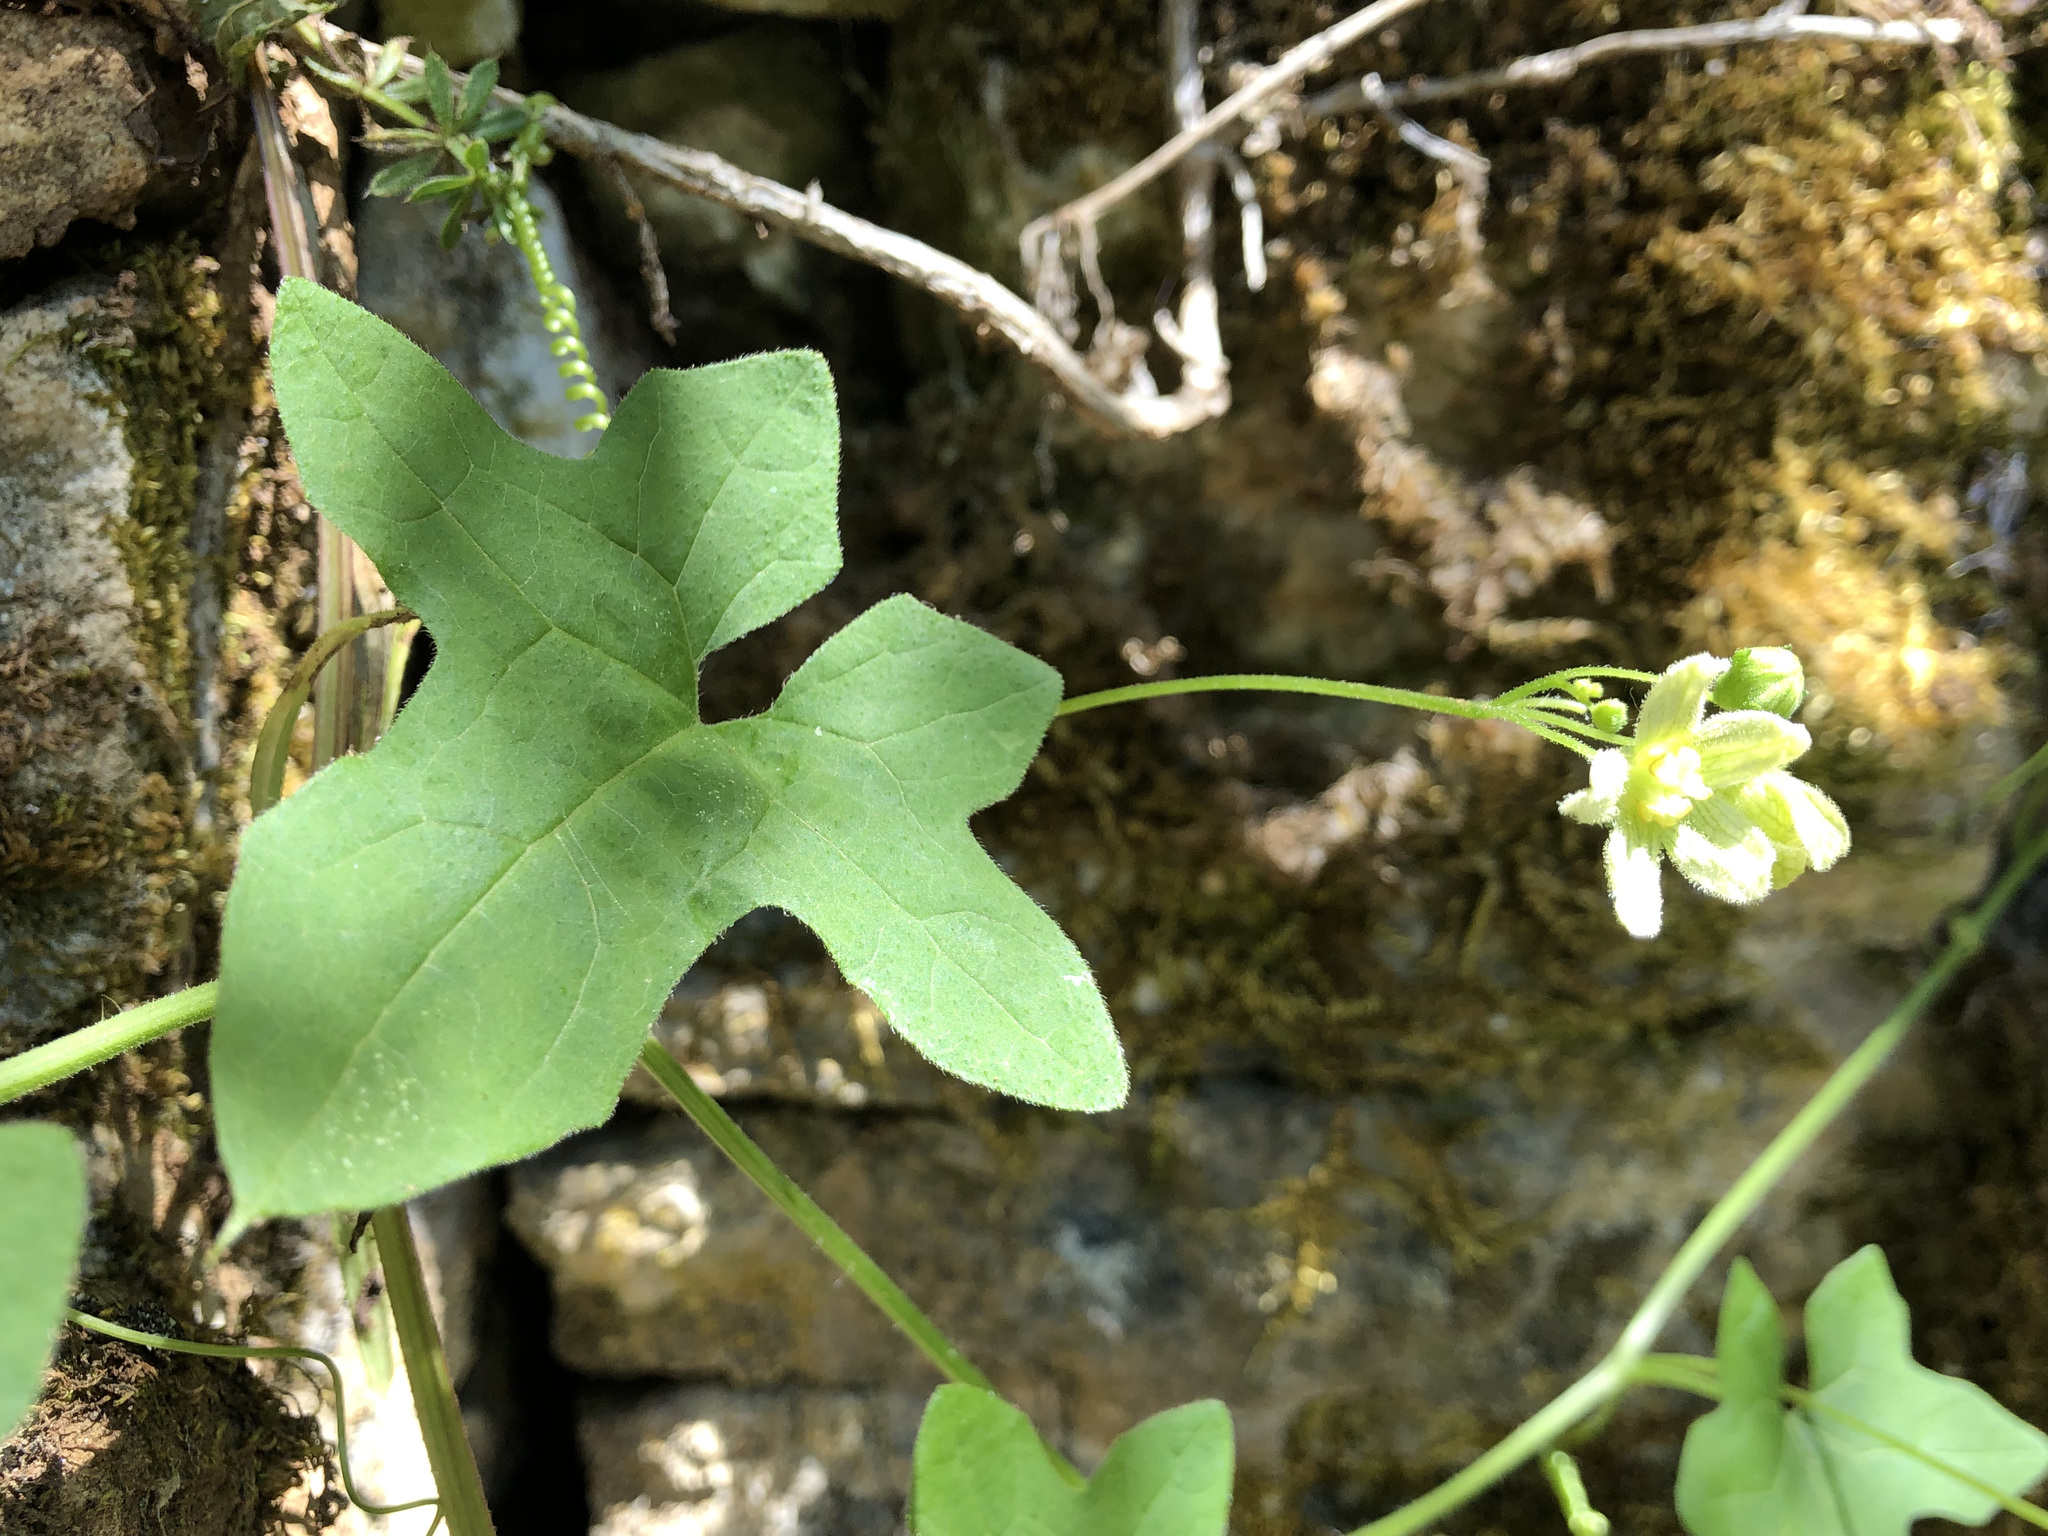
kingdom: Plantae
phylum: Tracheophyta
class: Magnoliopsida
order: Cucurbitales
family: Cucurbitaceae
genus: Bryonia
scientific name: Bryonia dioica
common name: White bryony
